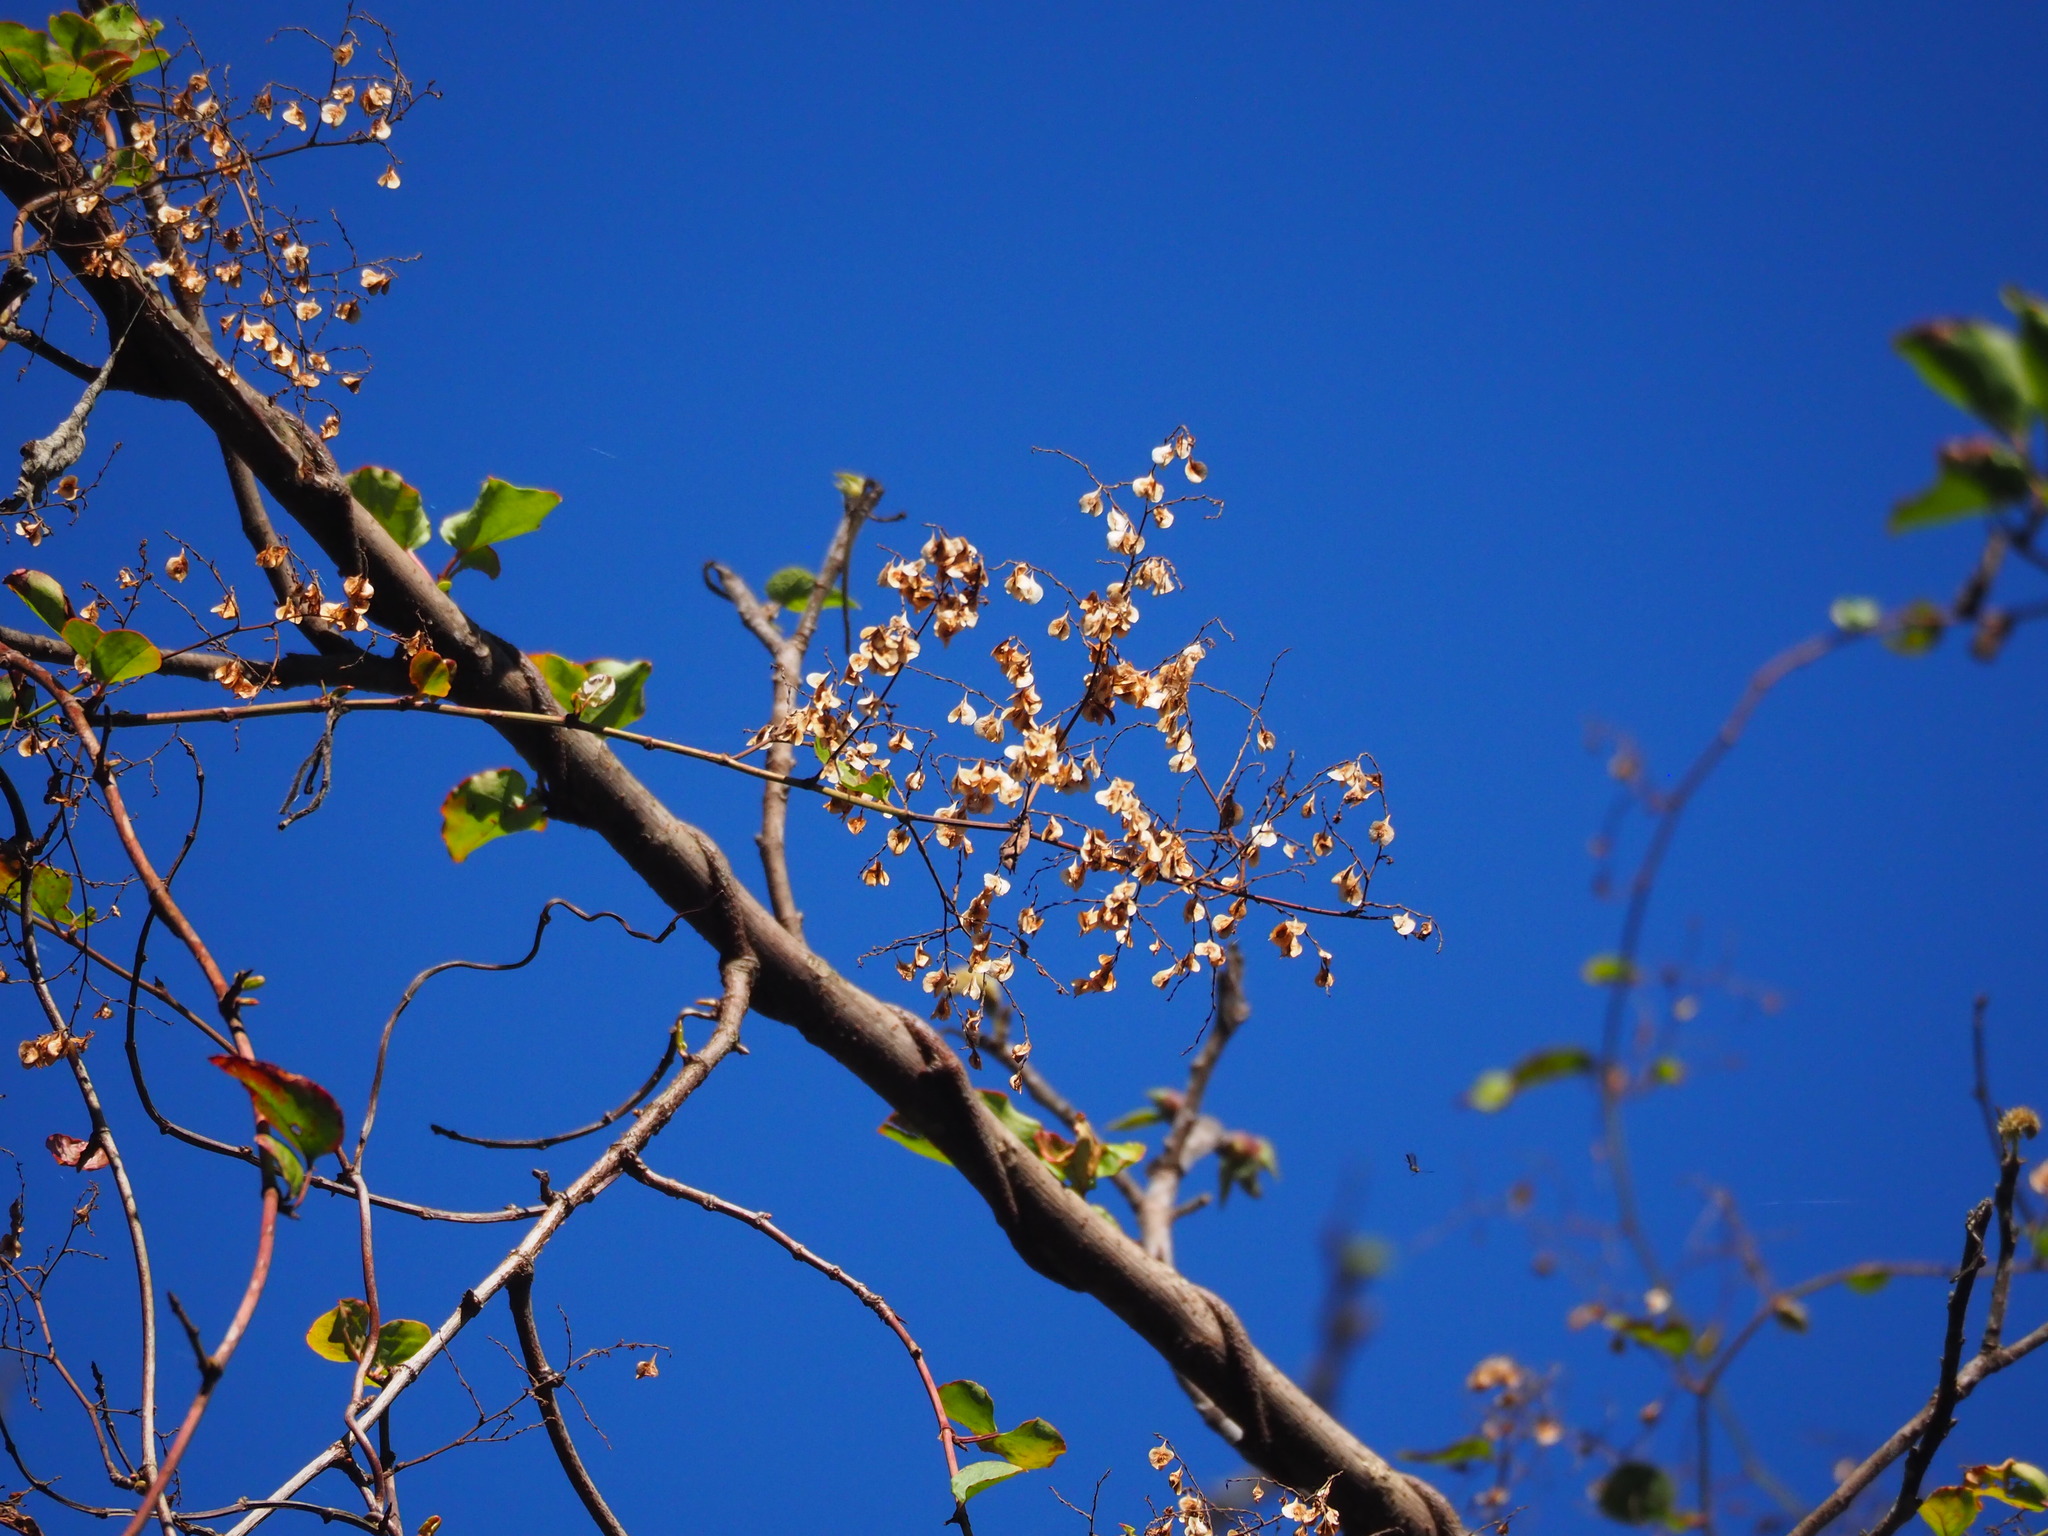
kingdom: Plantae
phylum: Tracheophyta
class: Magnoliopsida
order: Caryophyllales
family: Polygonaceae
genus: Reynoutria
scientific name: Reynoutria multiflora
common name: Chinese fleeceflower
